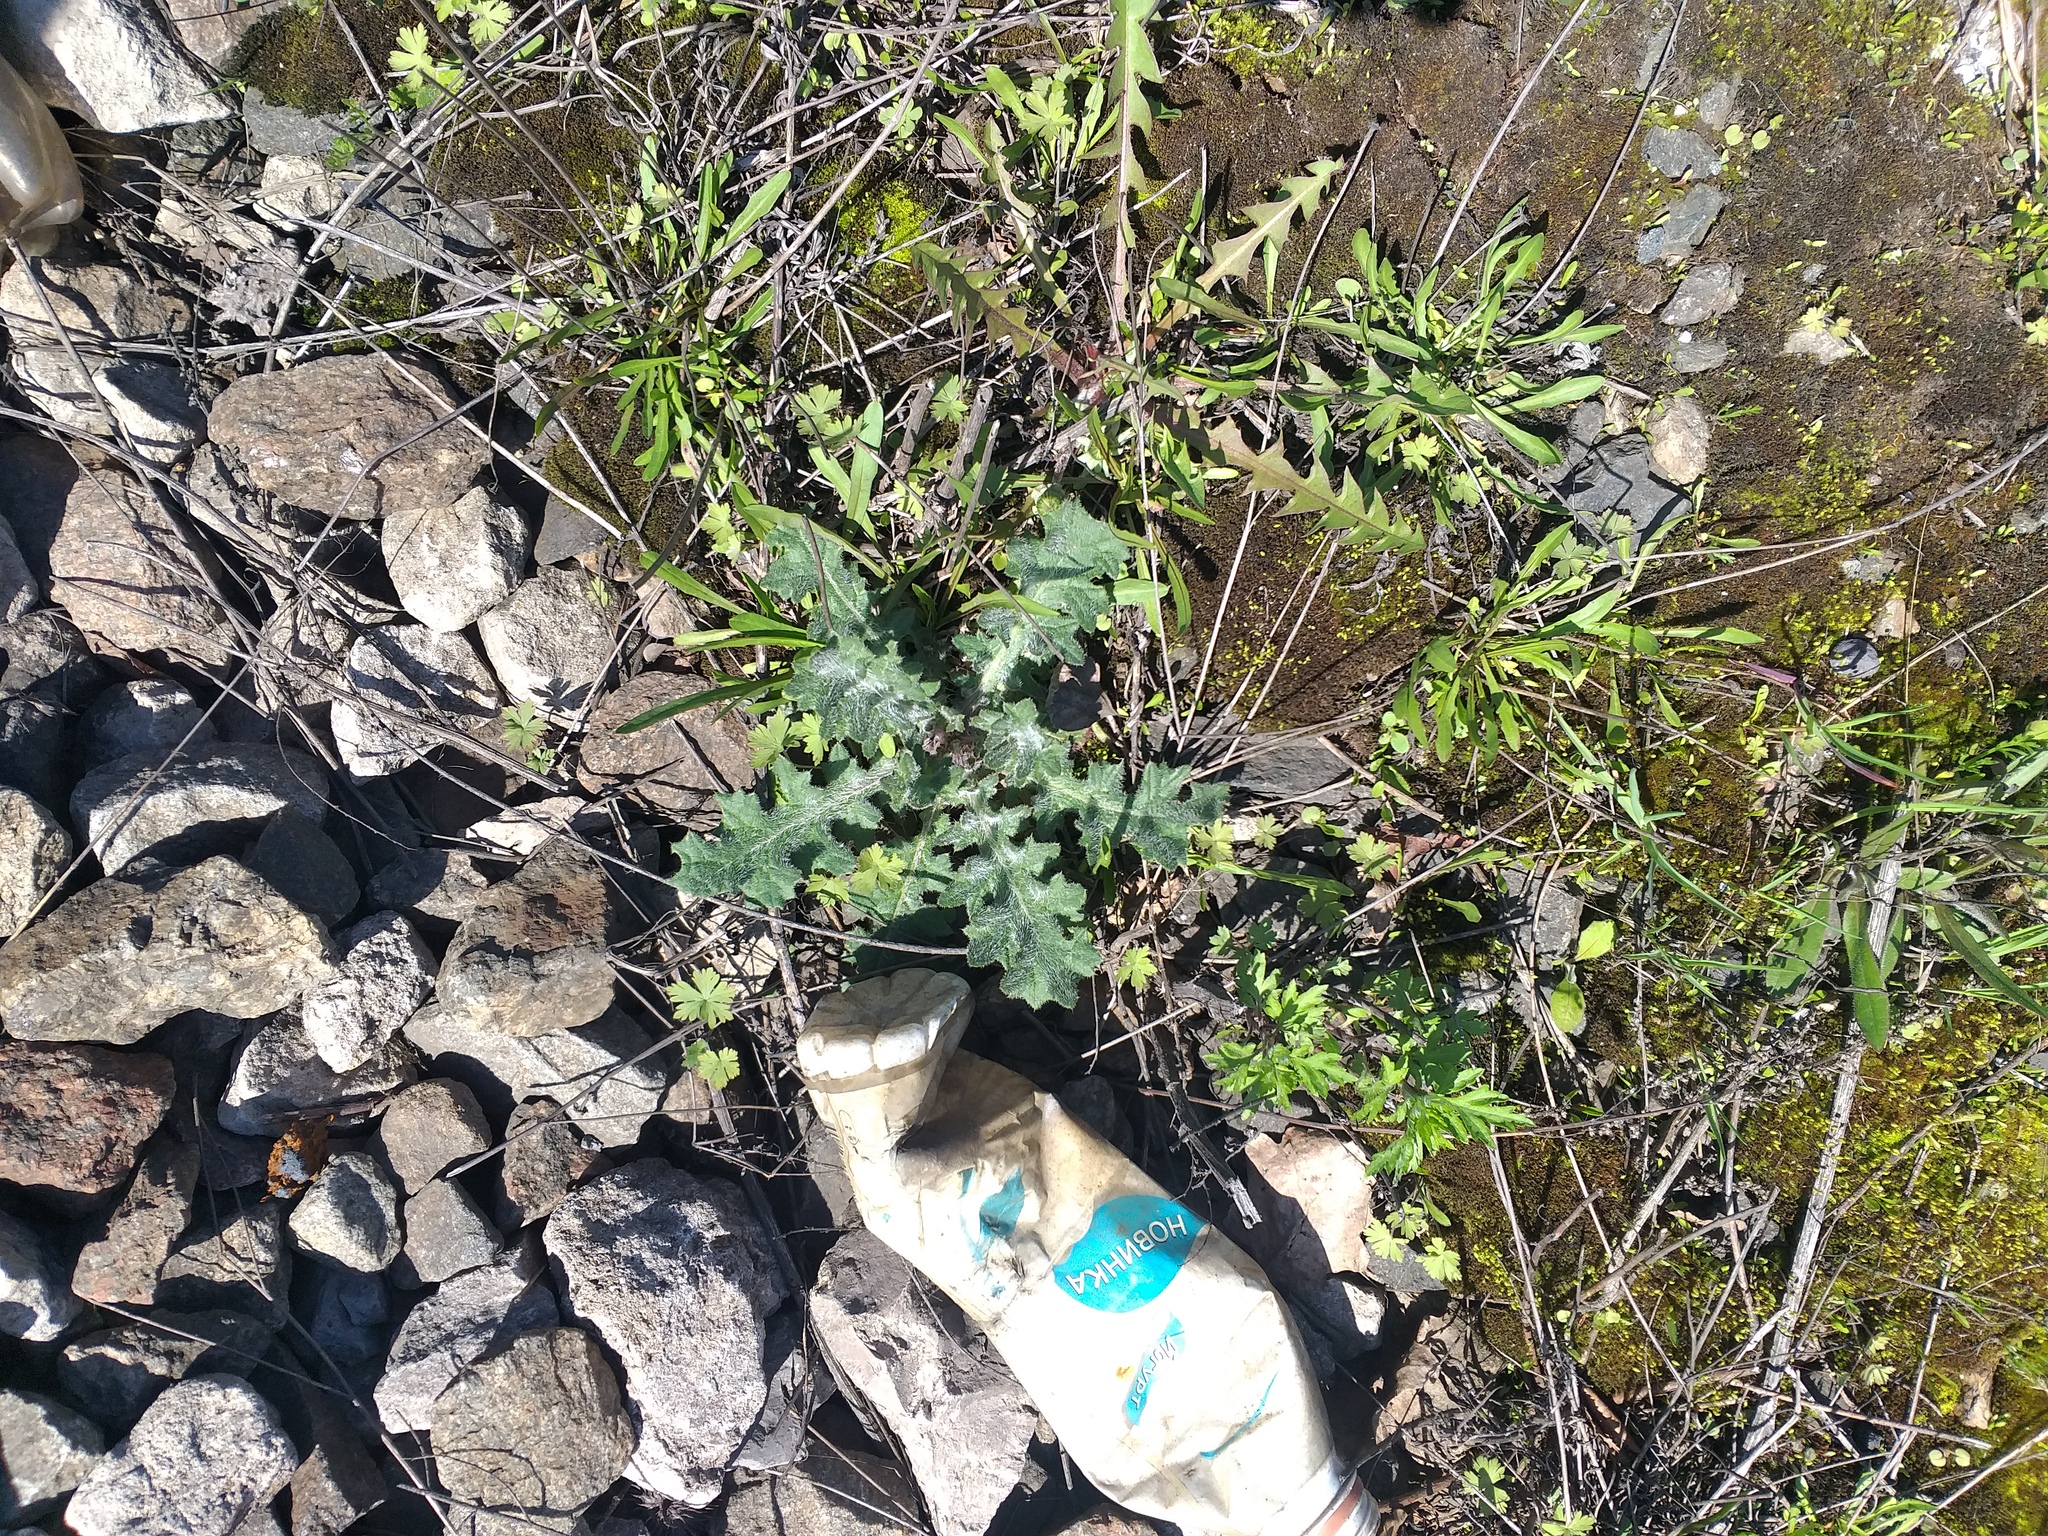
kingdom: Plantae
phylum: Tracheophyta
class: Magnoliopsida
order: Asterales
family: Asteraceae
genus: Cirsium
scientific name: Cirsium vulgare
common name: Bull thistle
